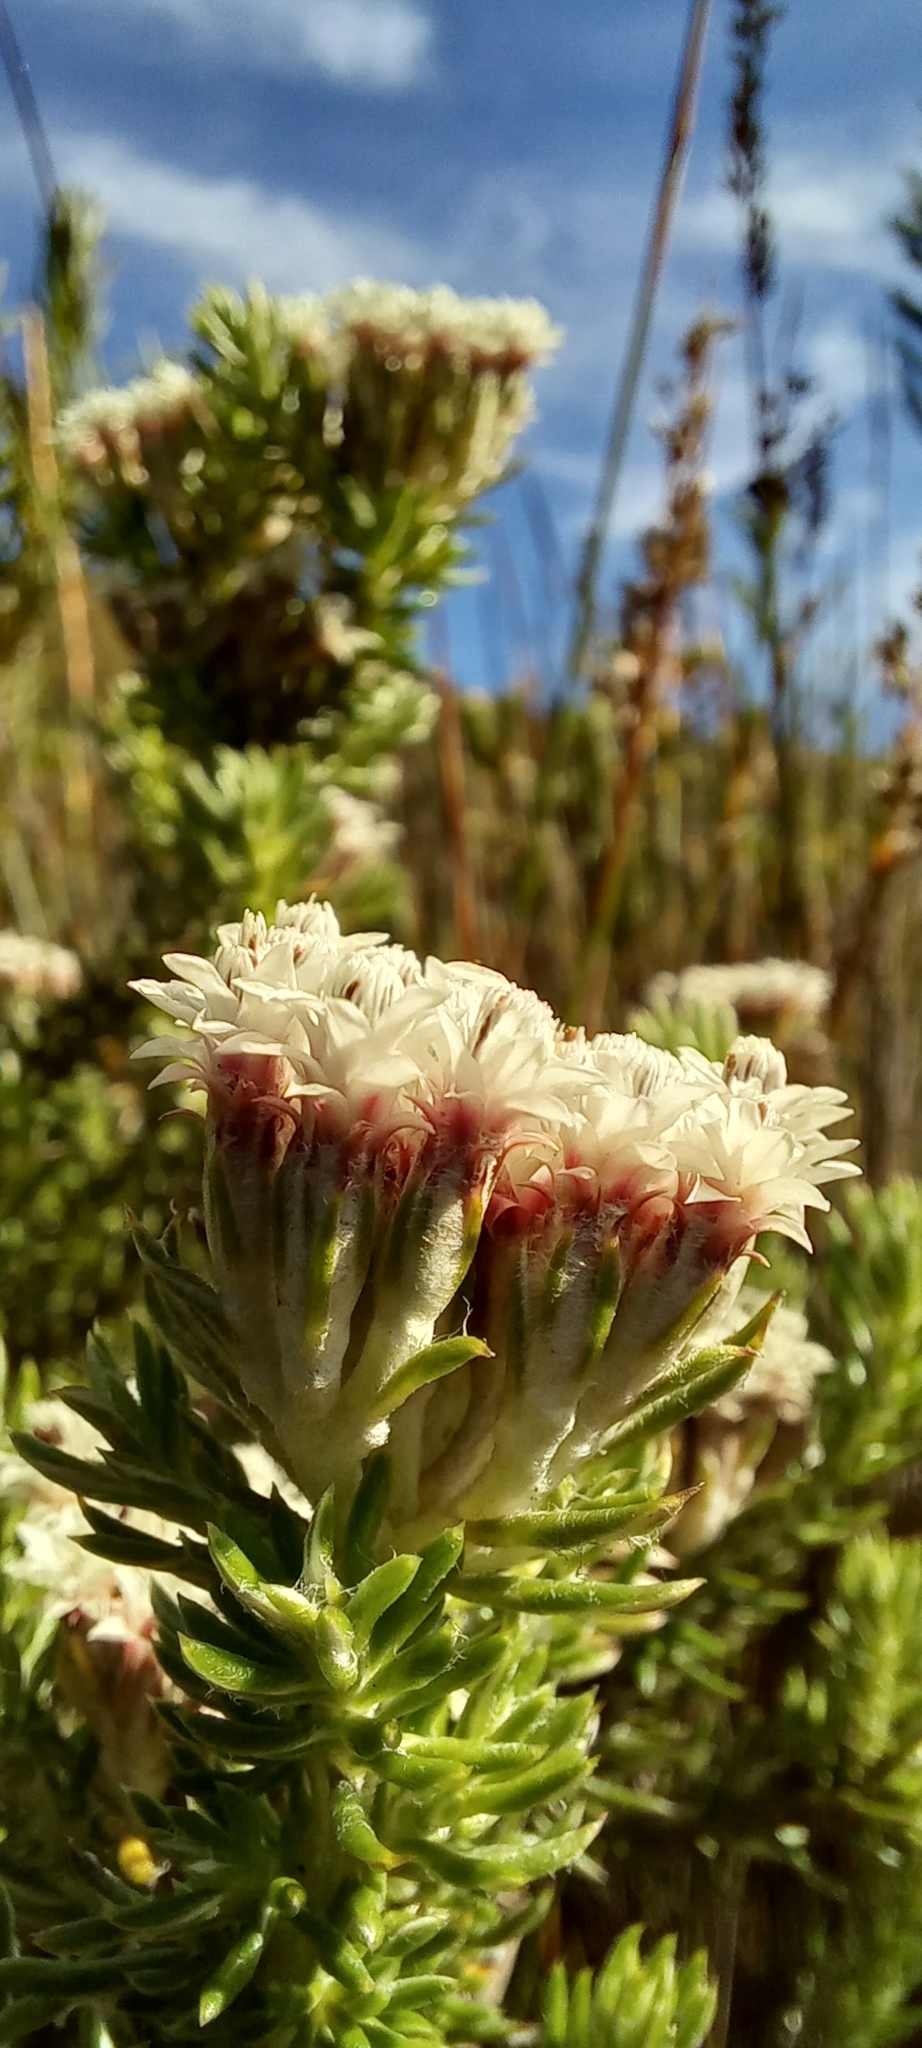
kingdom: Plantae
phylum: Tracheophyta
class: Magnoliopsida
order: Asterales
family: Asteraceae
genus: Metalasia
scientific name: Metalasia lichtensteinii
